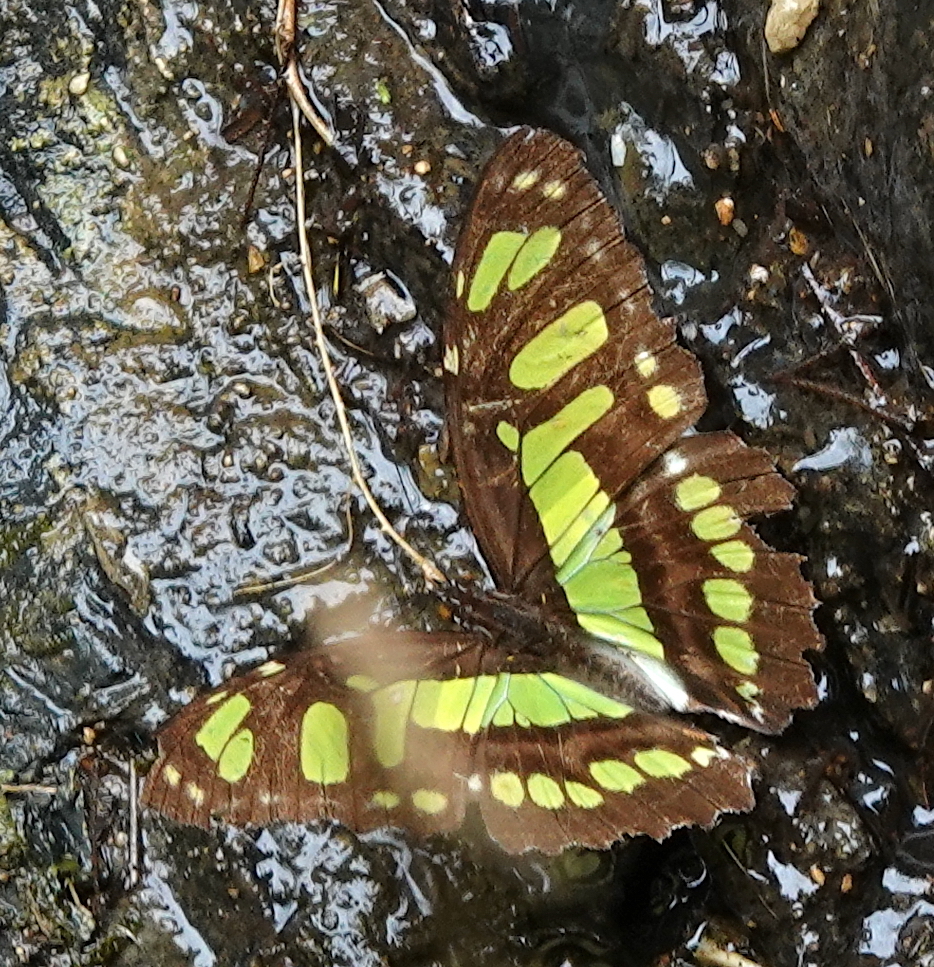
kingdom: Animalia
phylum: Arthropoda
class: Insecta
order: Lepidoptera
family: Nymphalidae
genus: Siproeta
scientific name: Siproeta stelenes
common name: Malachite
